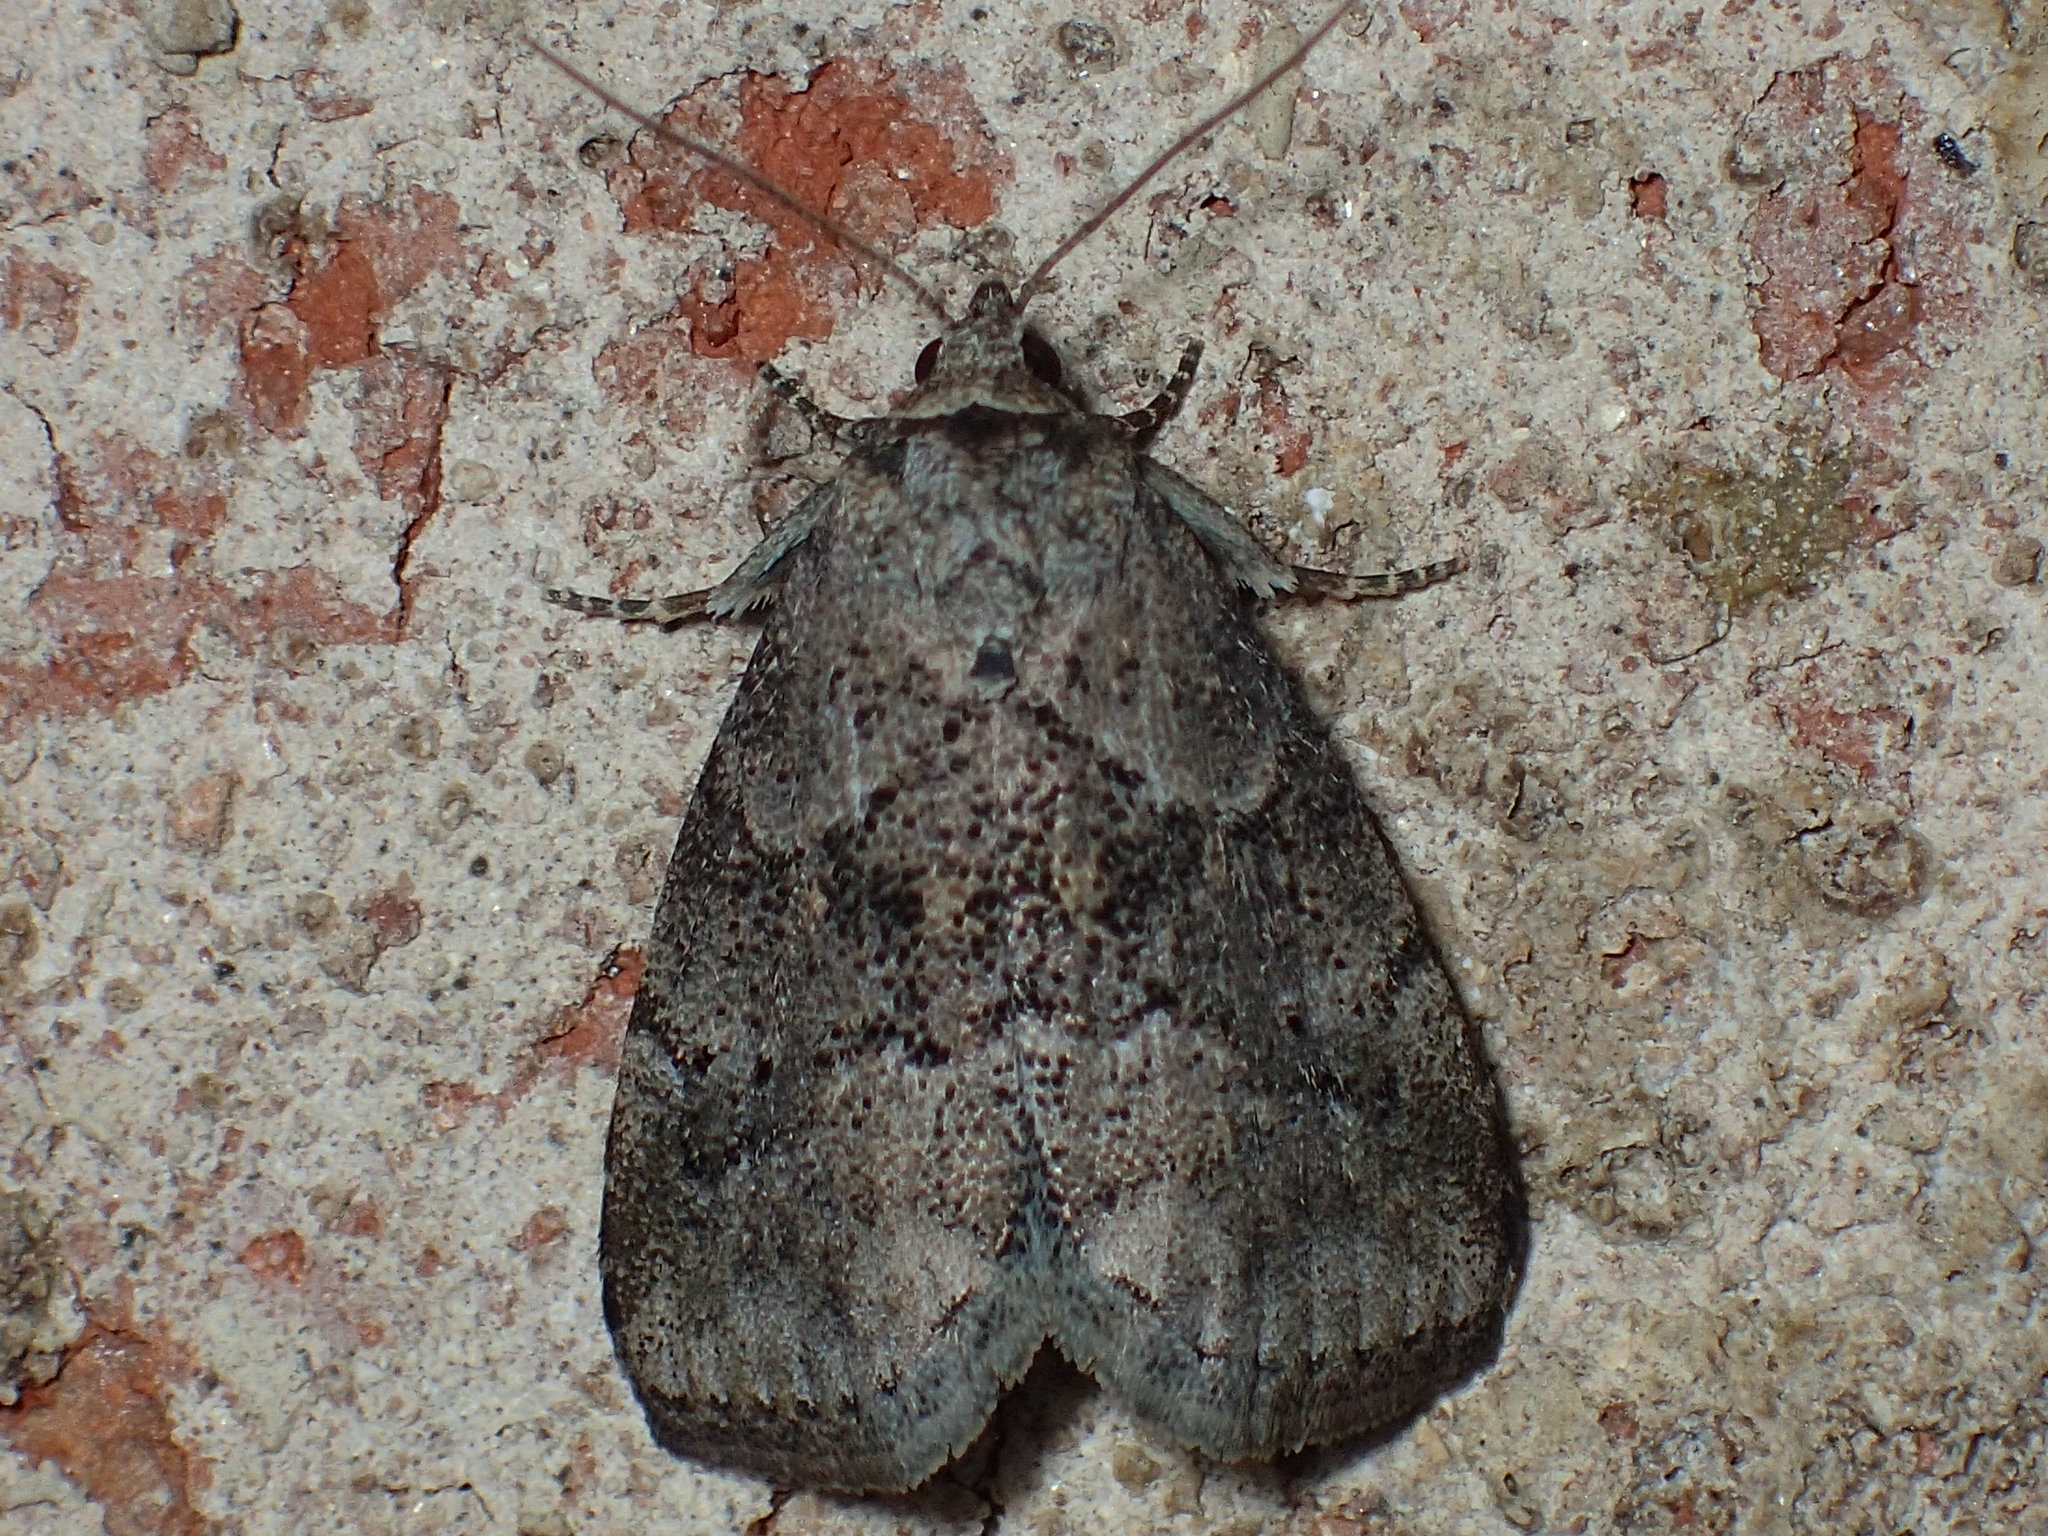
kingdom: Animalia
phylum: Arthropoda
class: Insecta
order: Lepidoptera
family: Erebidae
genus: Hyperstrotia
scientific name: Hyperstrotia pervertens
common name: Dotted graylet
